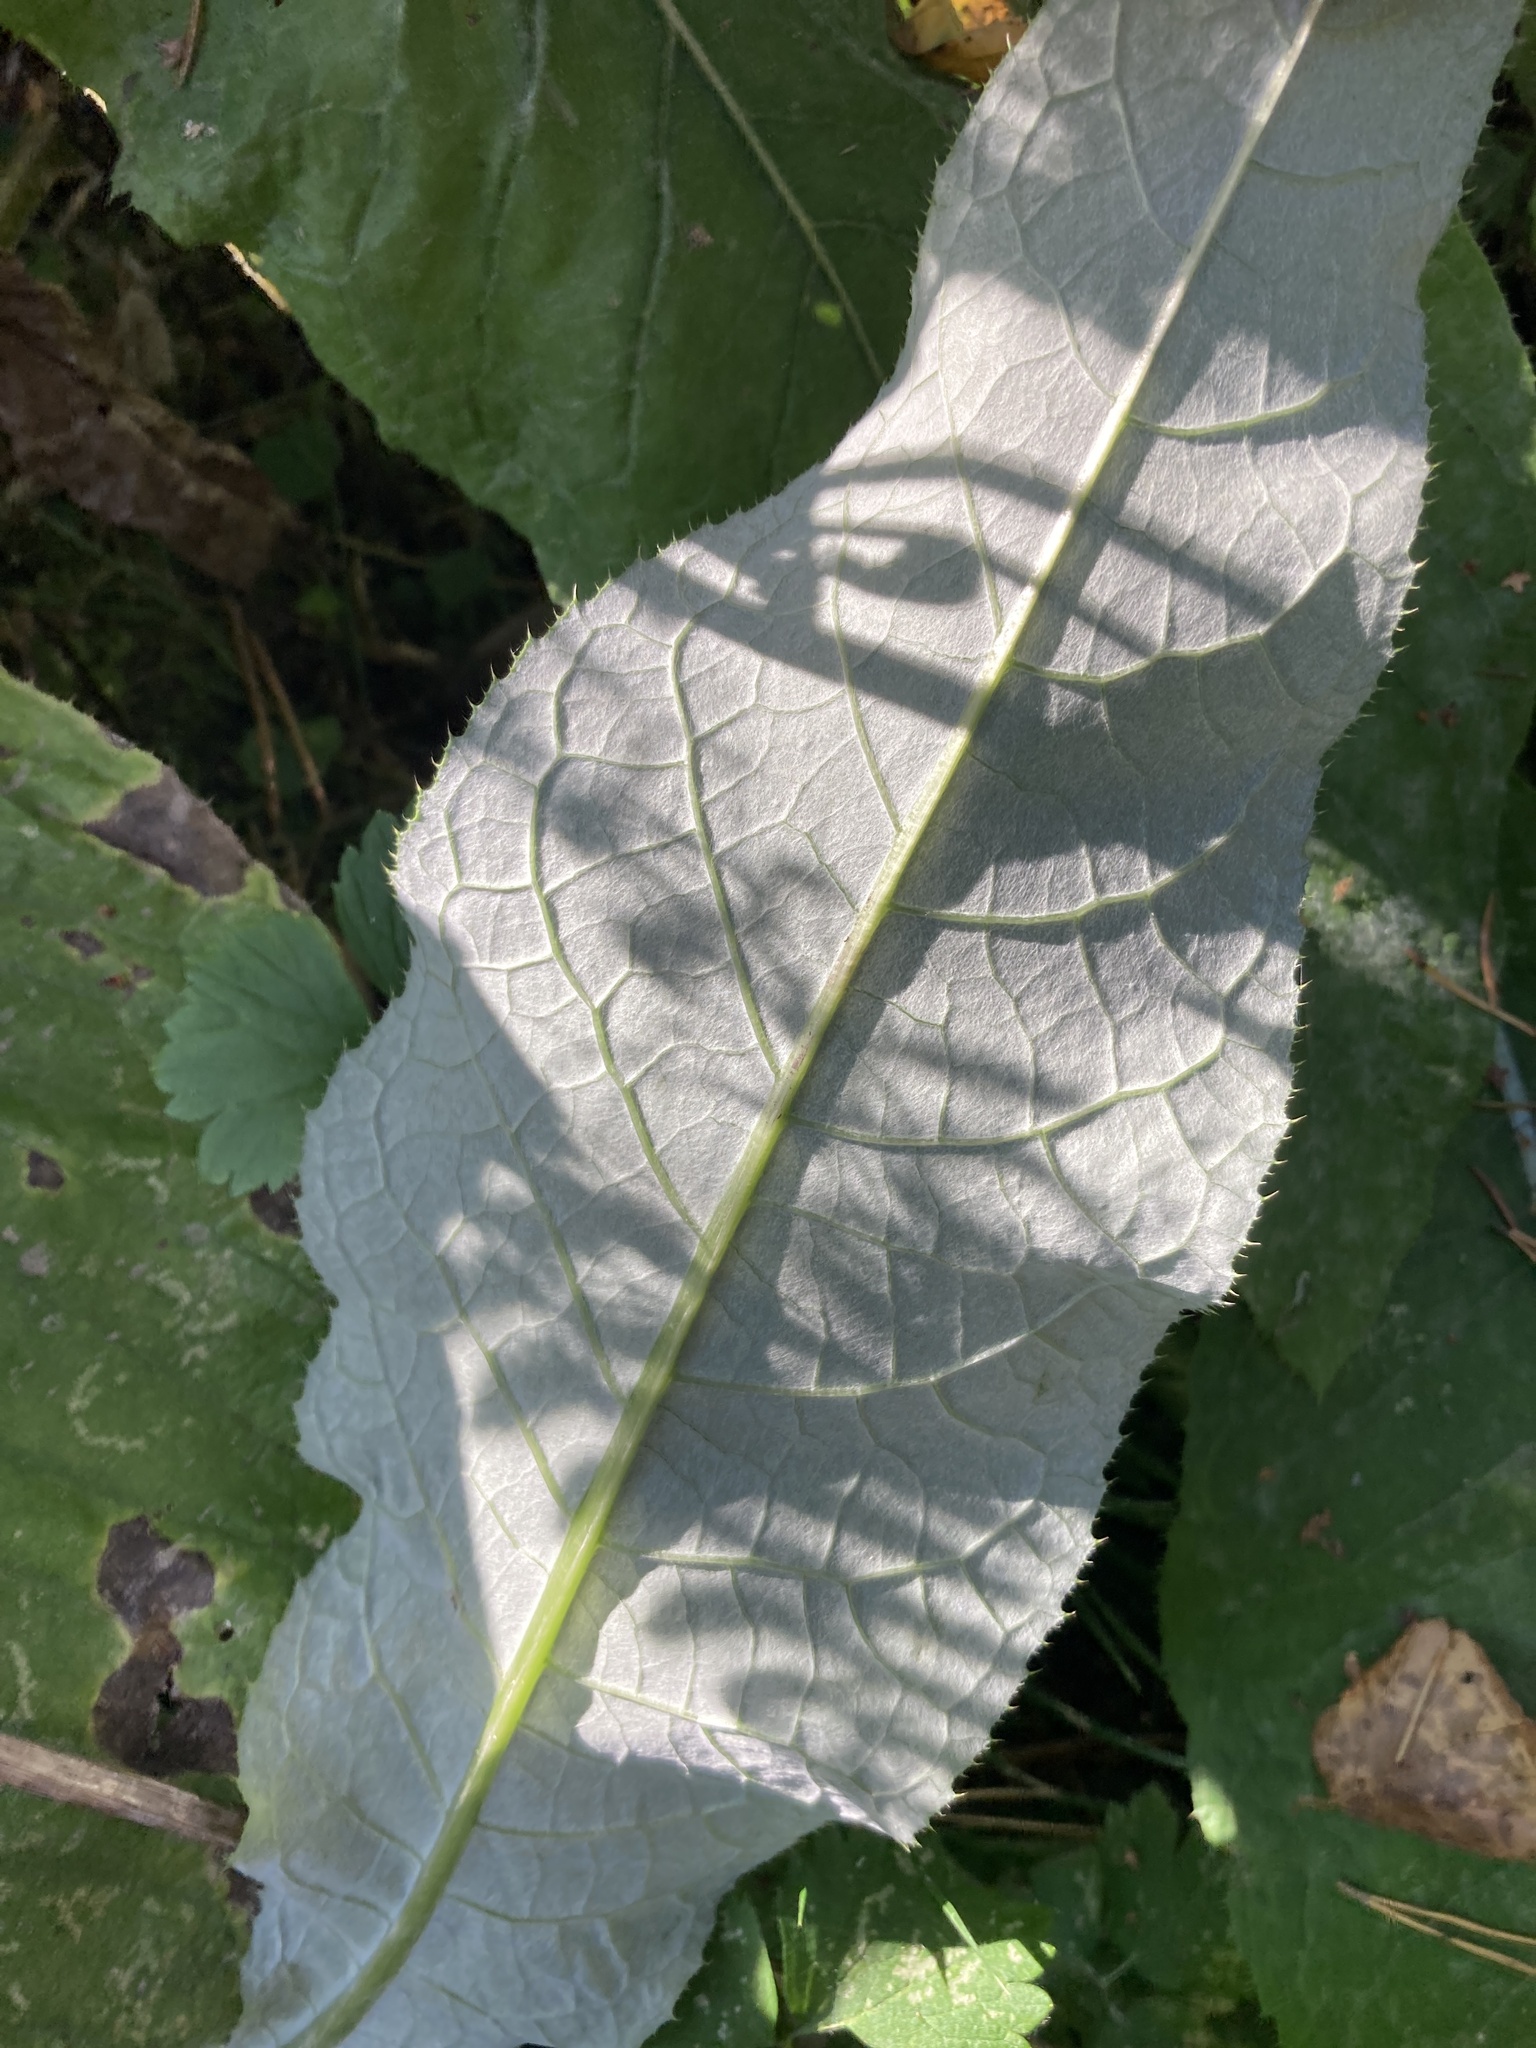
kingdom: Plantae
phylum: Tracheophyta
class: Magnoliopsida
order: Asterales
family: Asteraceae
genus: Cirsium
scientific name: Cirsium heterophyllum
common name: Melancholy thistle
